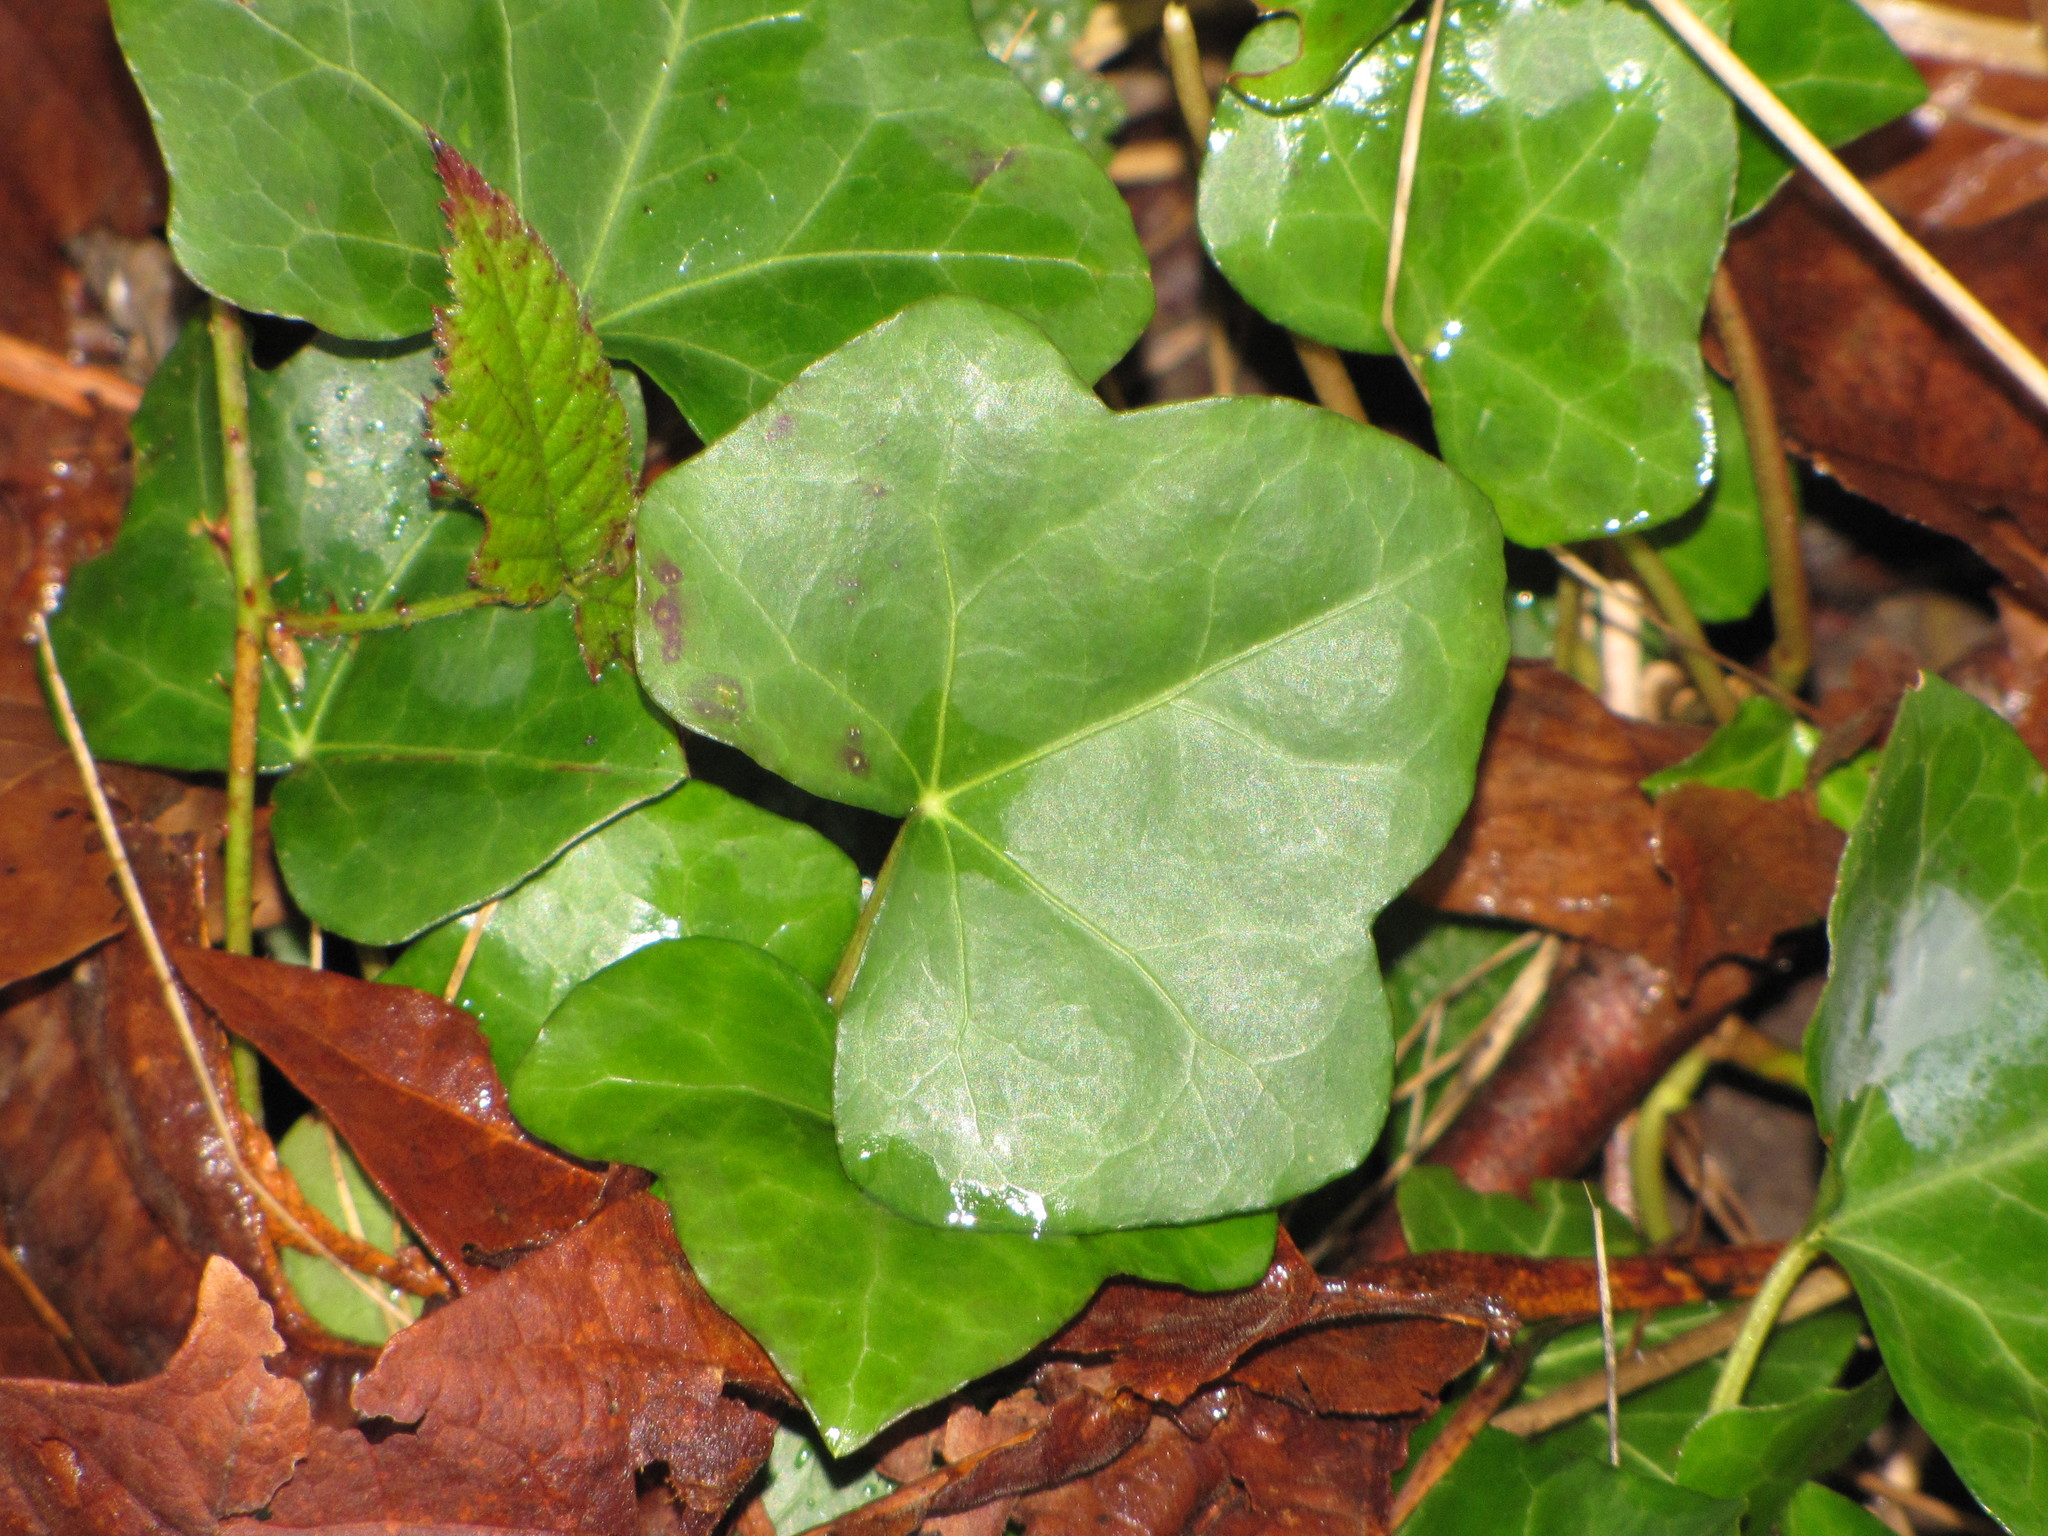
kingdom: Plantae
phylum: Tracheophyta
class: Magnoliopsida
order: Apiales
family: Araliaceae
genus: Hedera
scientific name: Hedera helix
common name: Ivy
